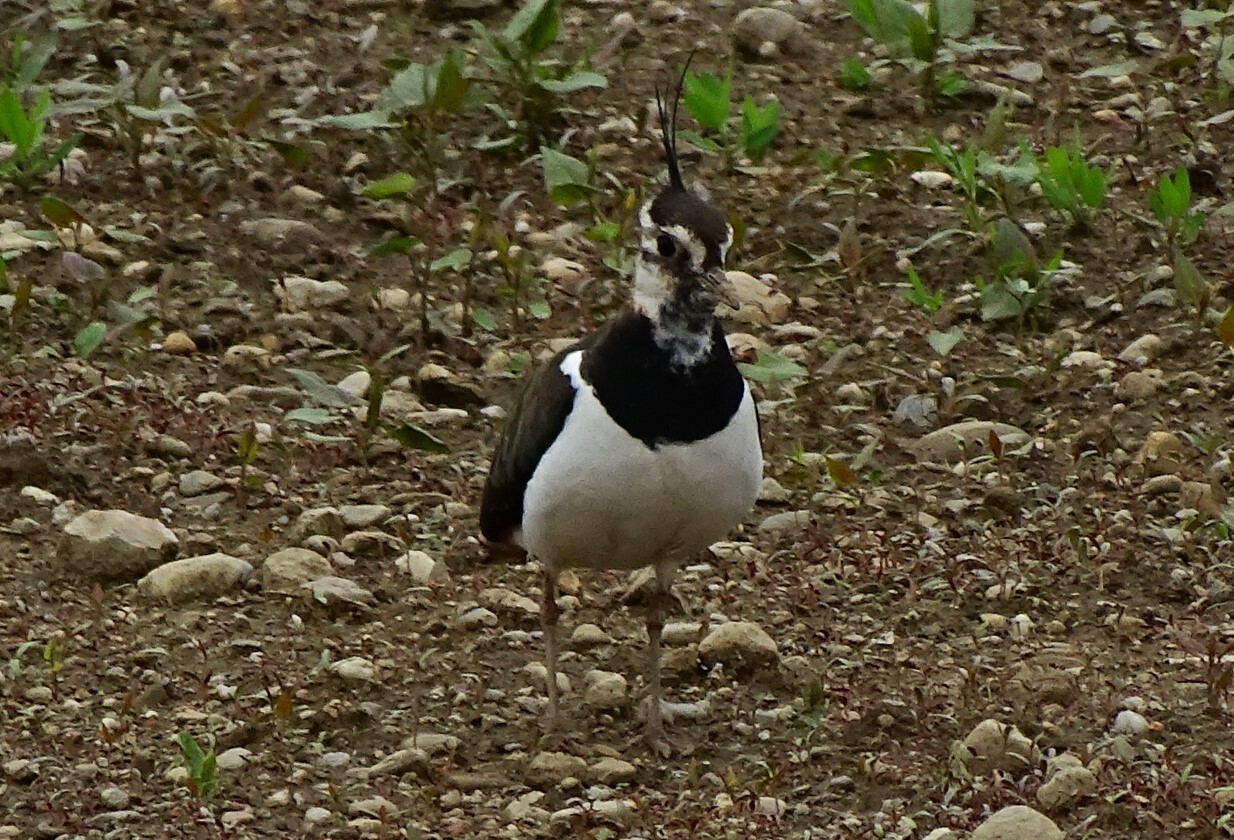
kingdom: Animalia
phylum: Chordata
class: Aves
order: Charadriiformes
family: Charadriidae
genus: Vanellus
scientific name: Vanellus vanellus
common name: Northern lapwing
